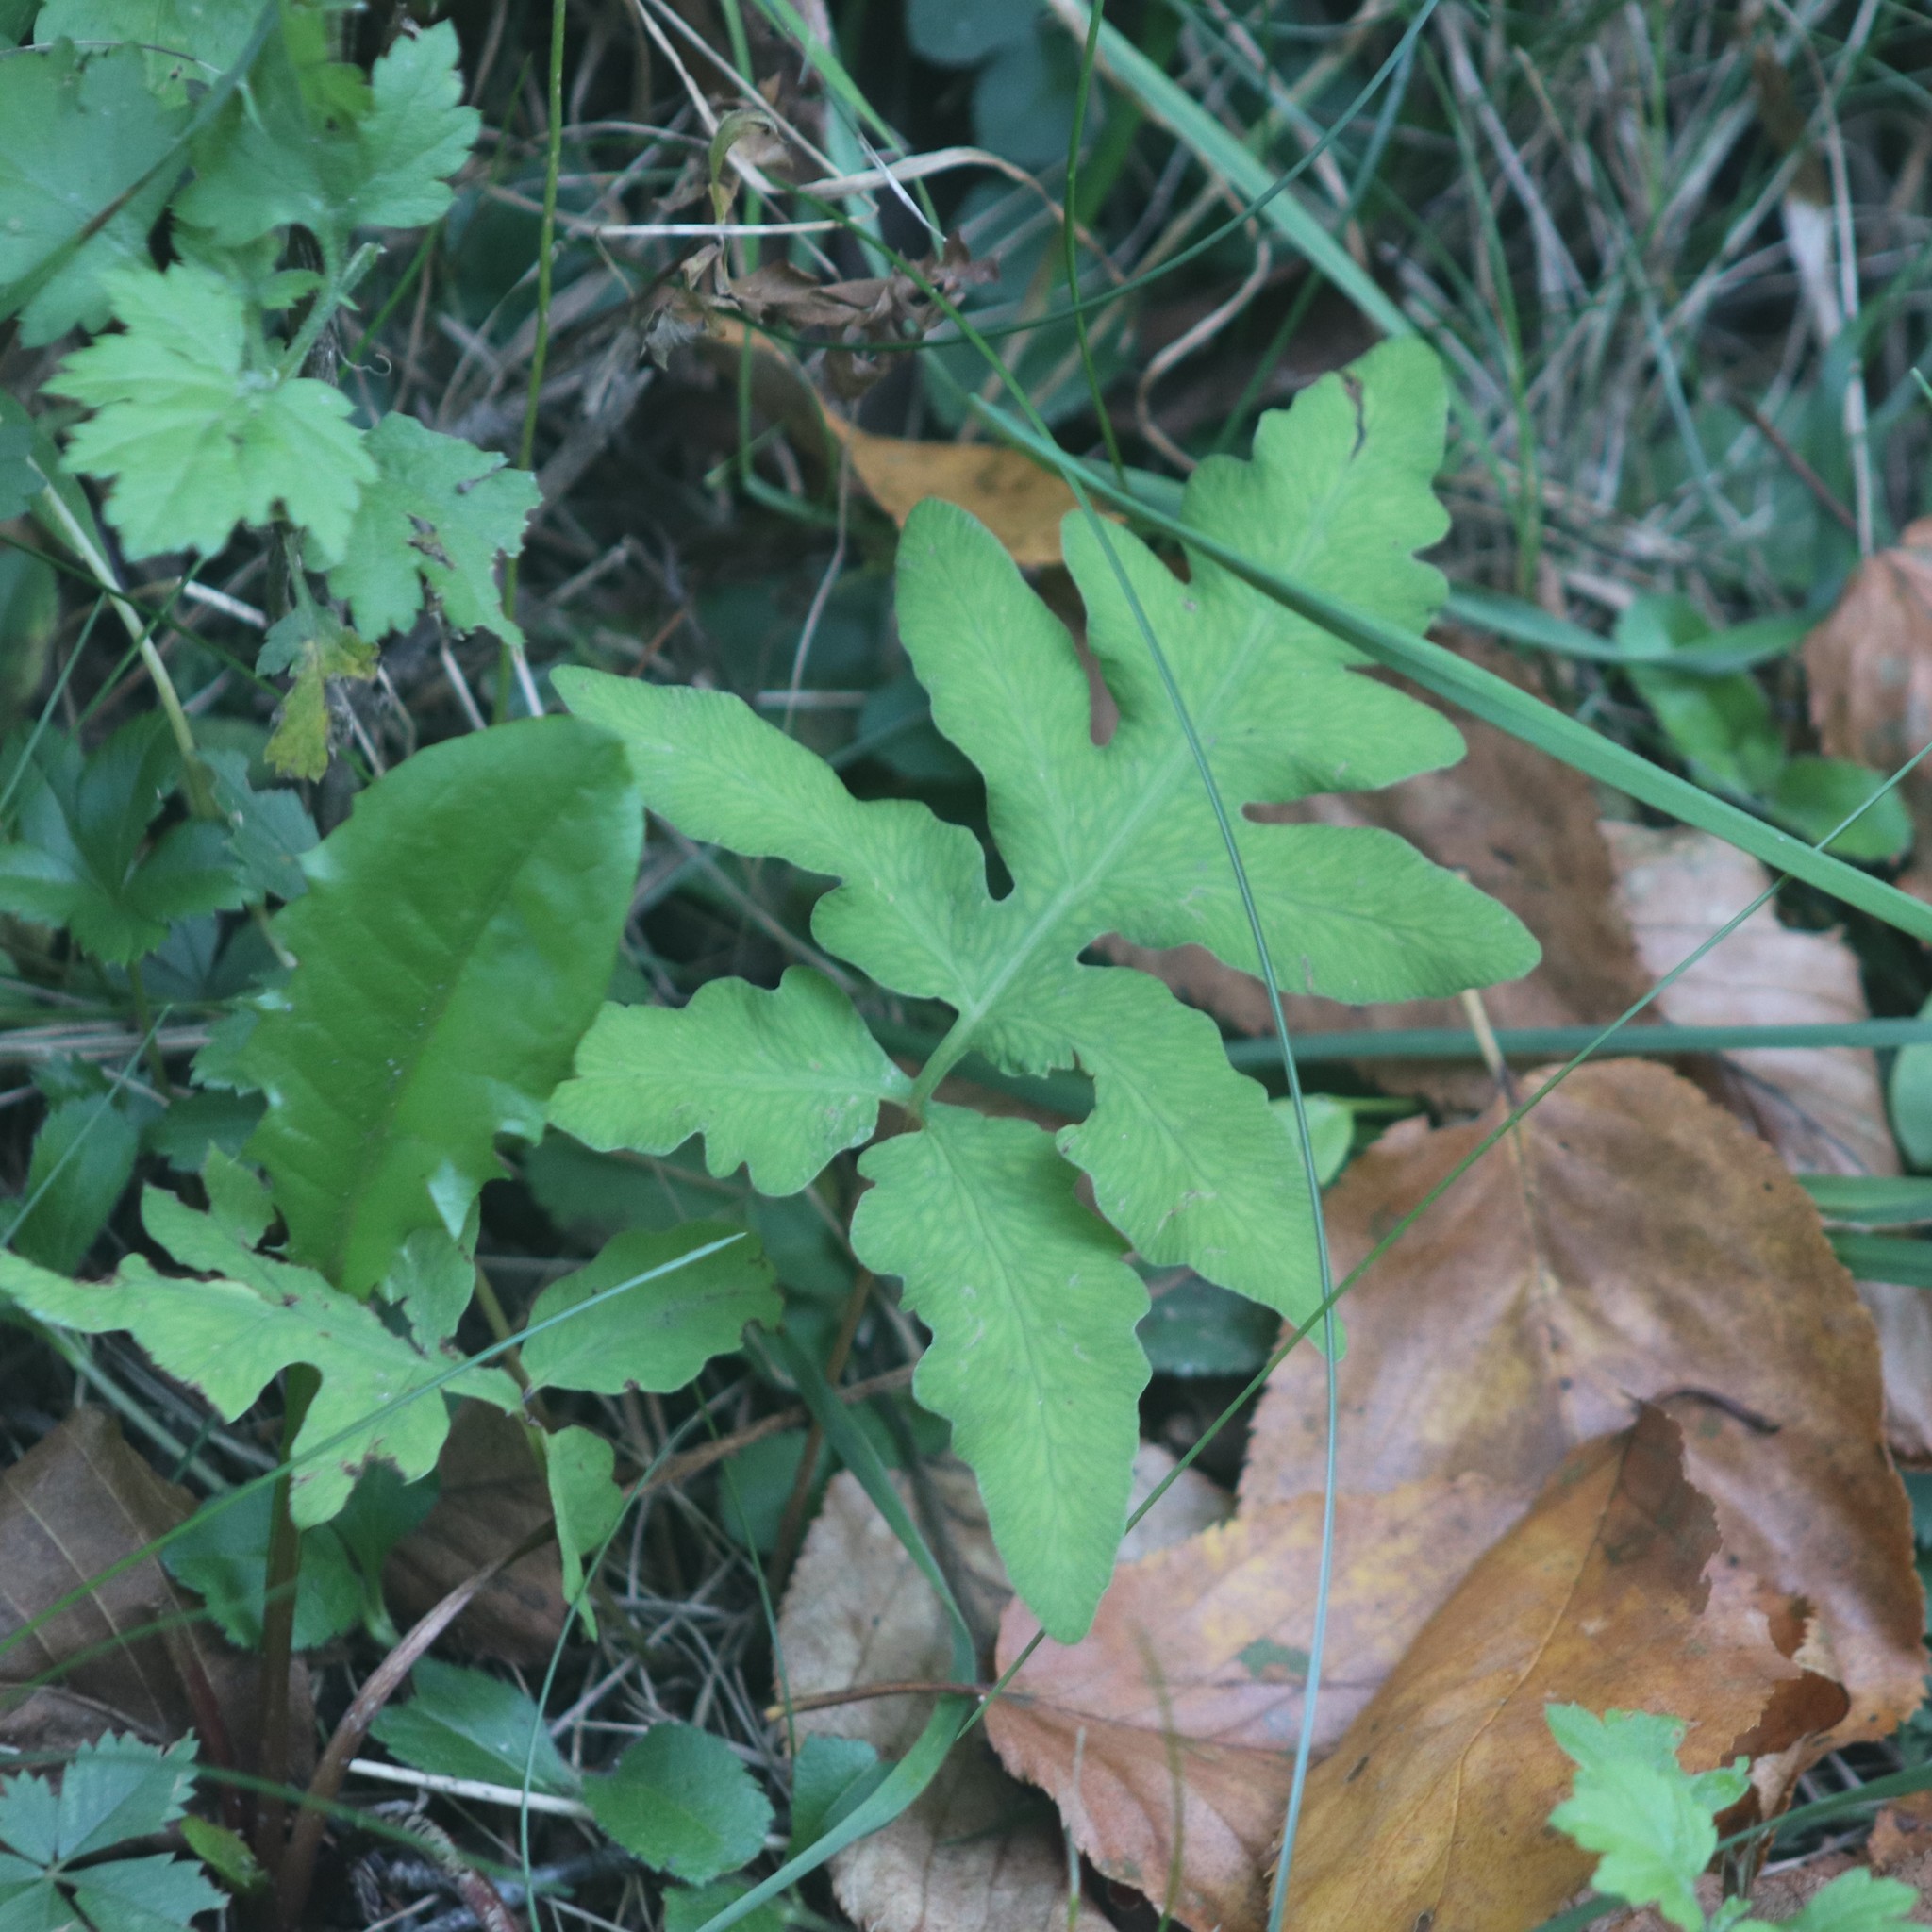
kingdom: Plantae
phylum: Tracheophyta
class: Polypodiopsida
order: Polypodiales
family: Onocleaceae
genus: Onoclea
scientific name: Onoclea sensibilis
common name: Sensitive fern
